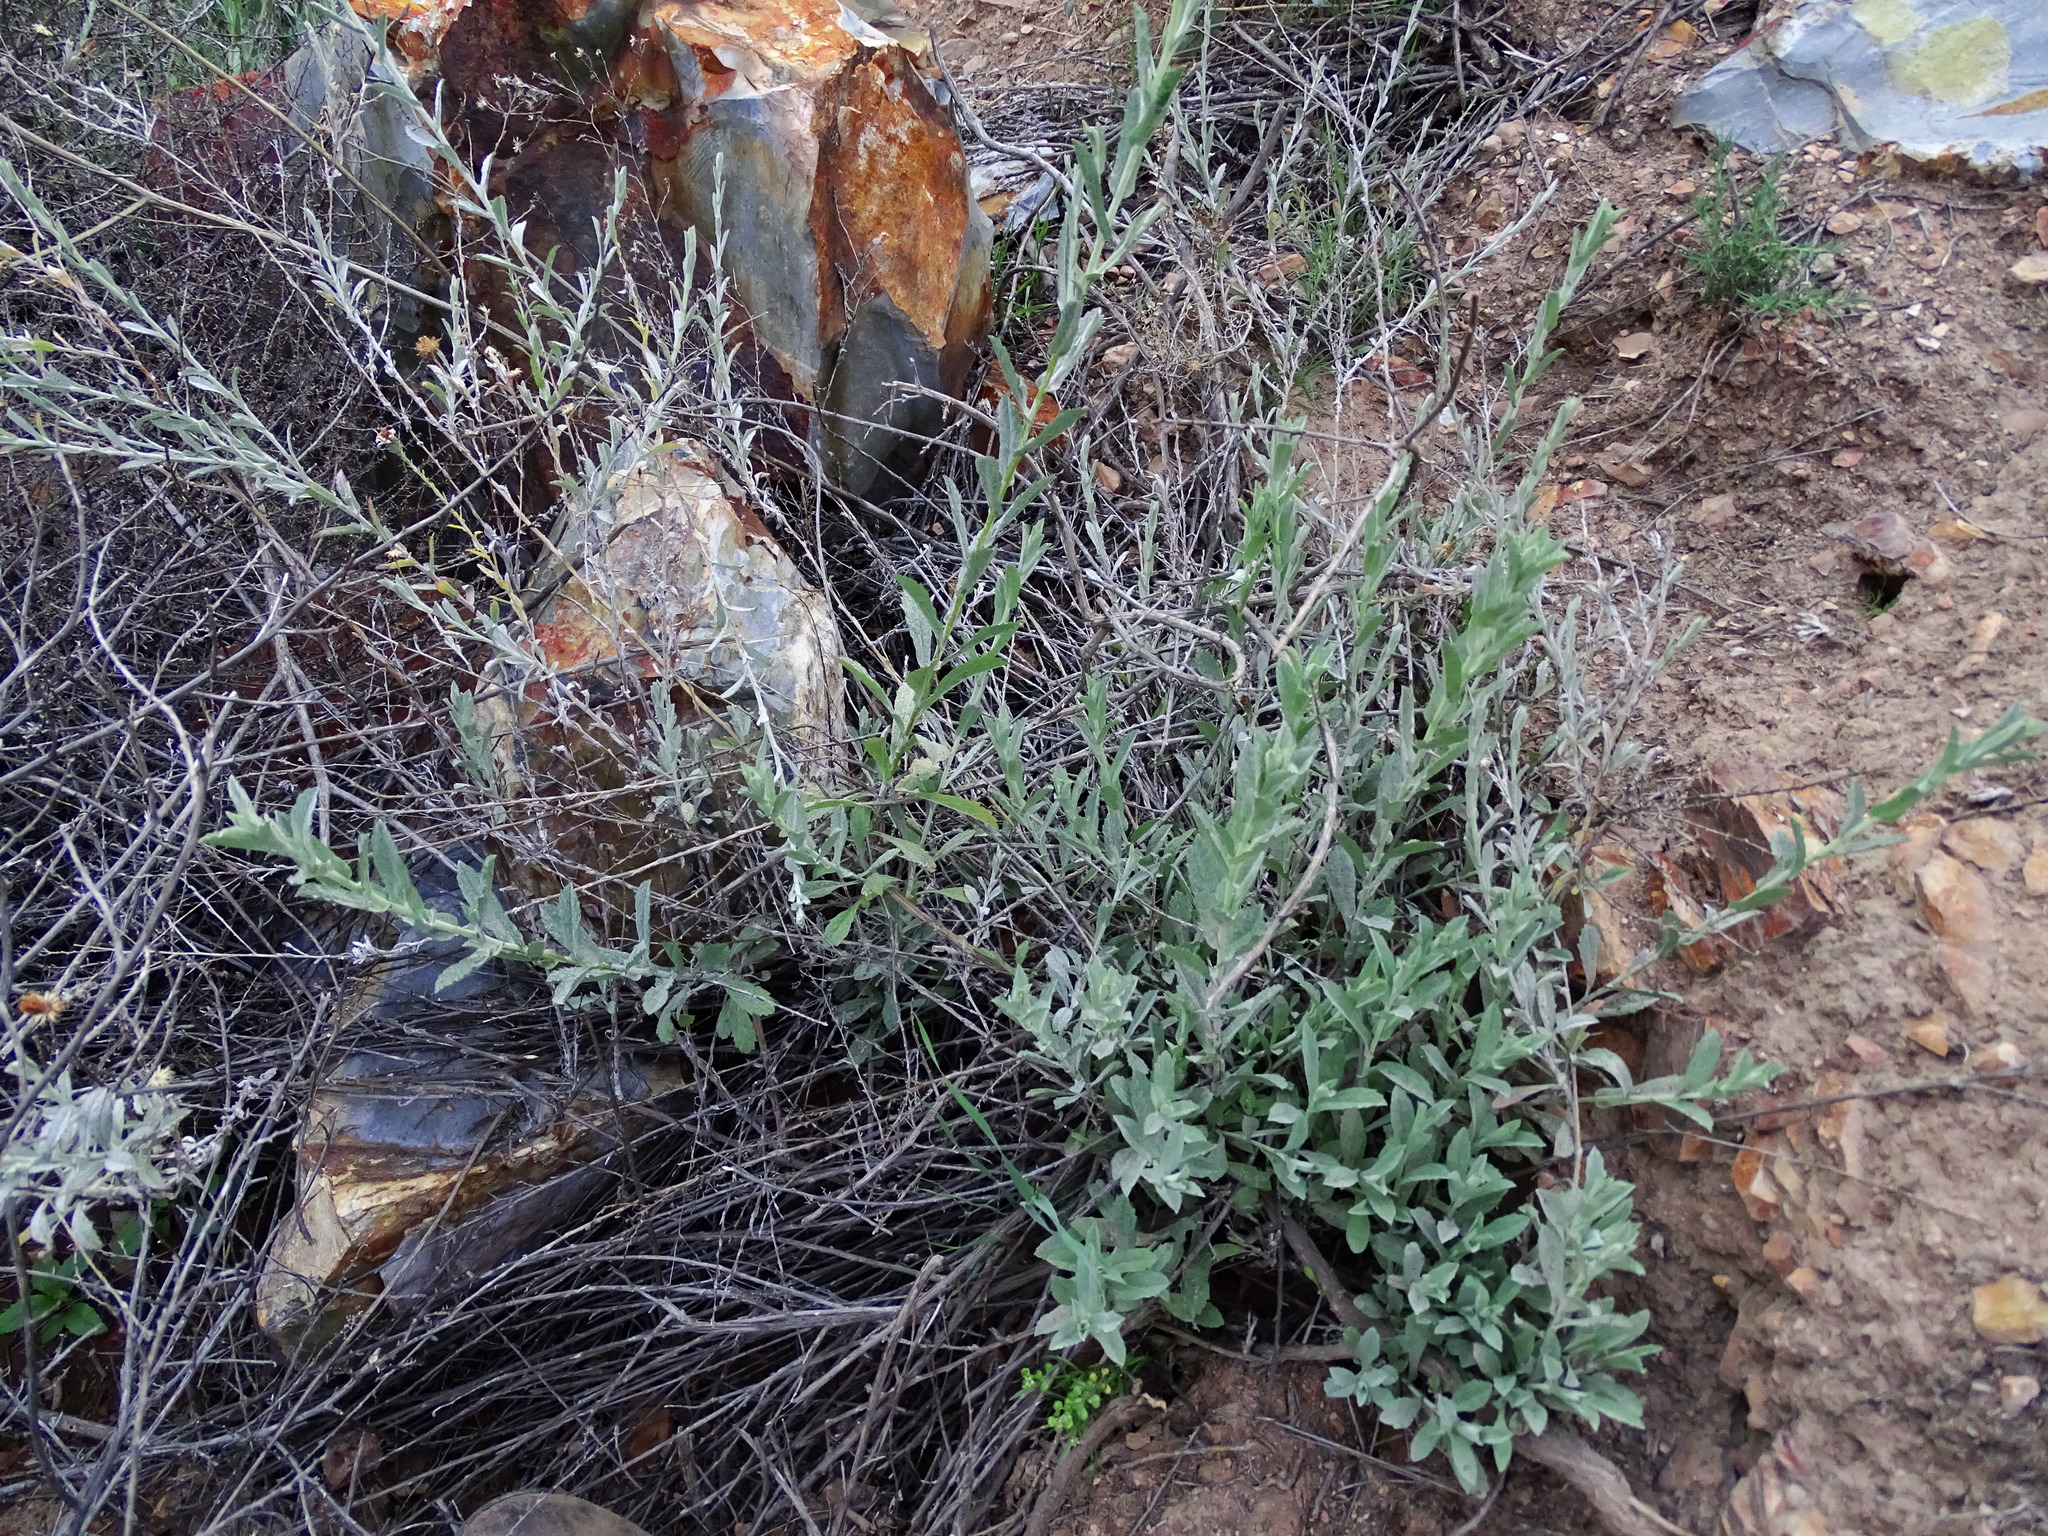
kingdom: Plantae
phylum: Tracheophyta
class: Magnoliopsida
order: Asterales
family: Asteraceae
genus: Corethrogyne
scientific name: Corethrogyne filaginifolia
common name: Sand-aster
